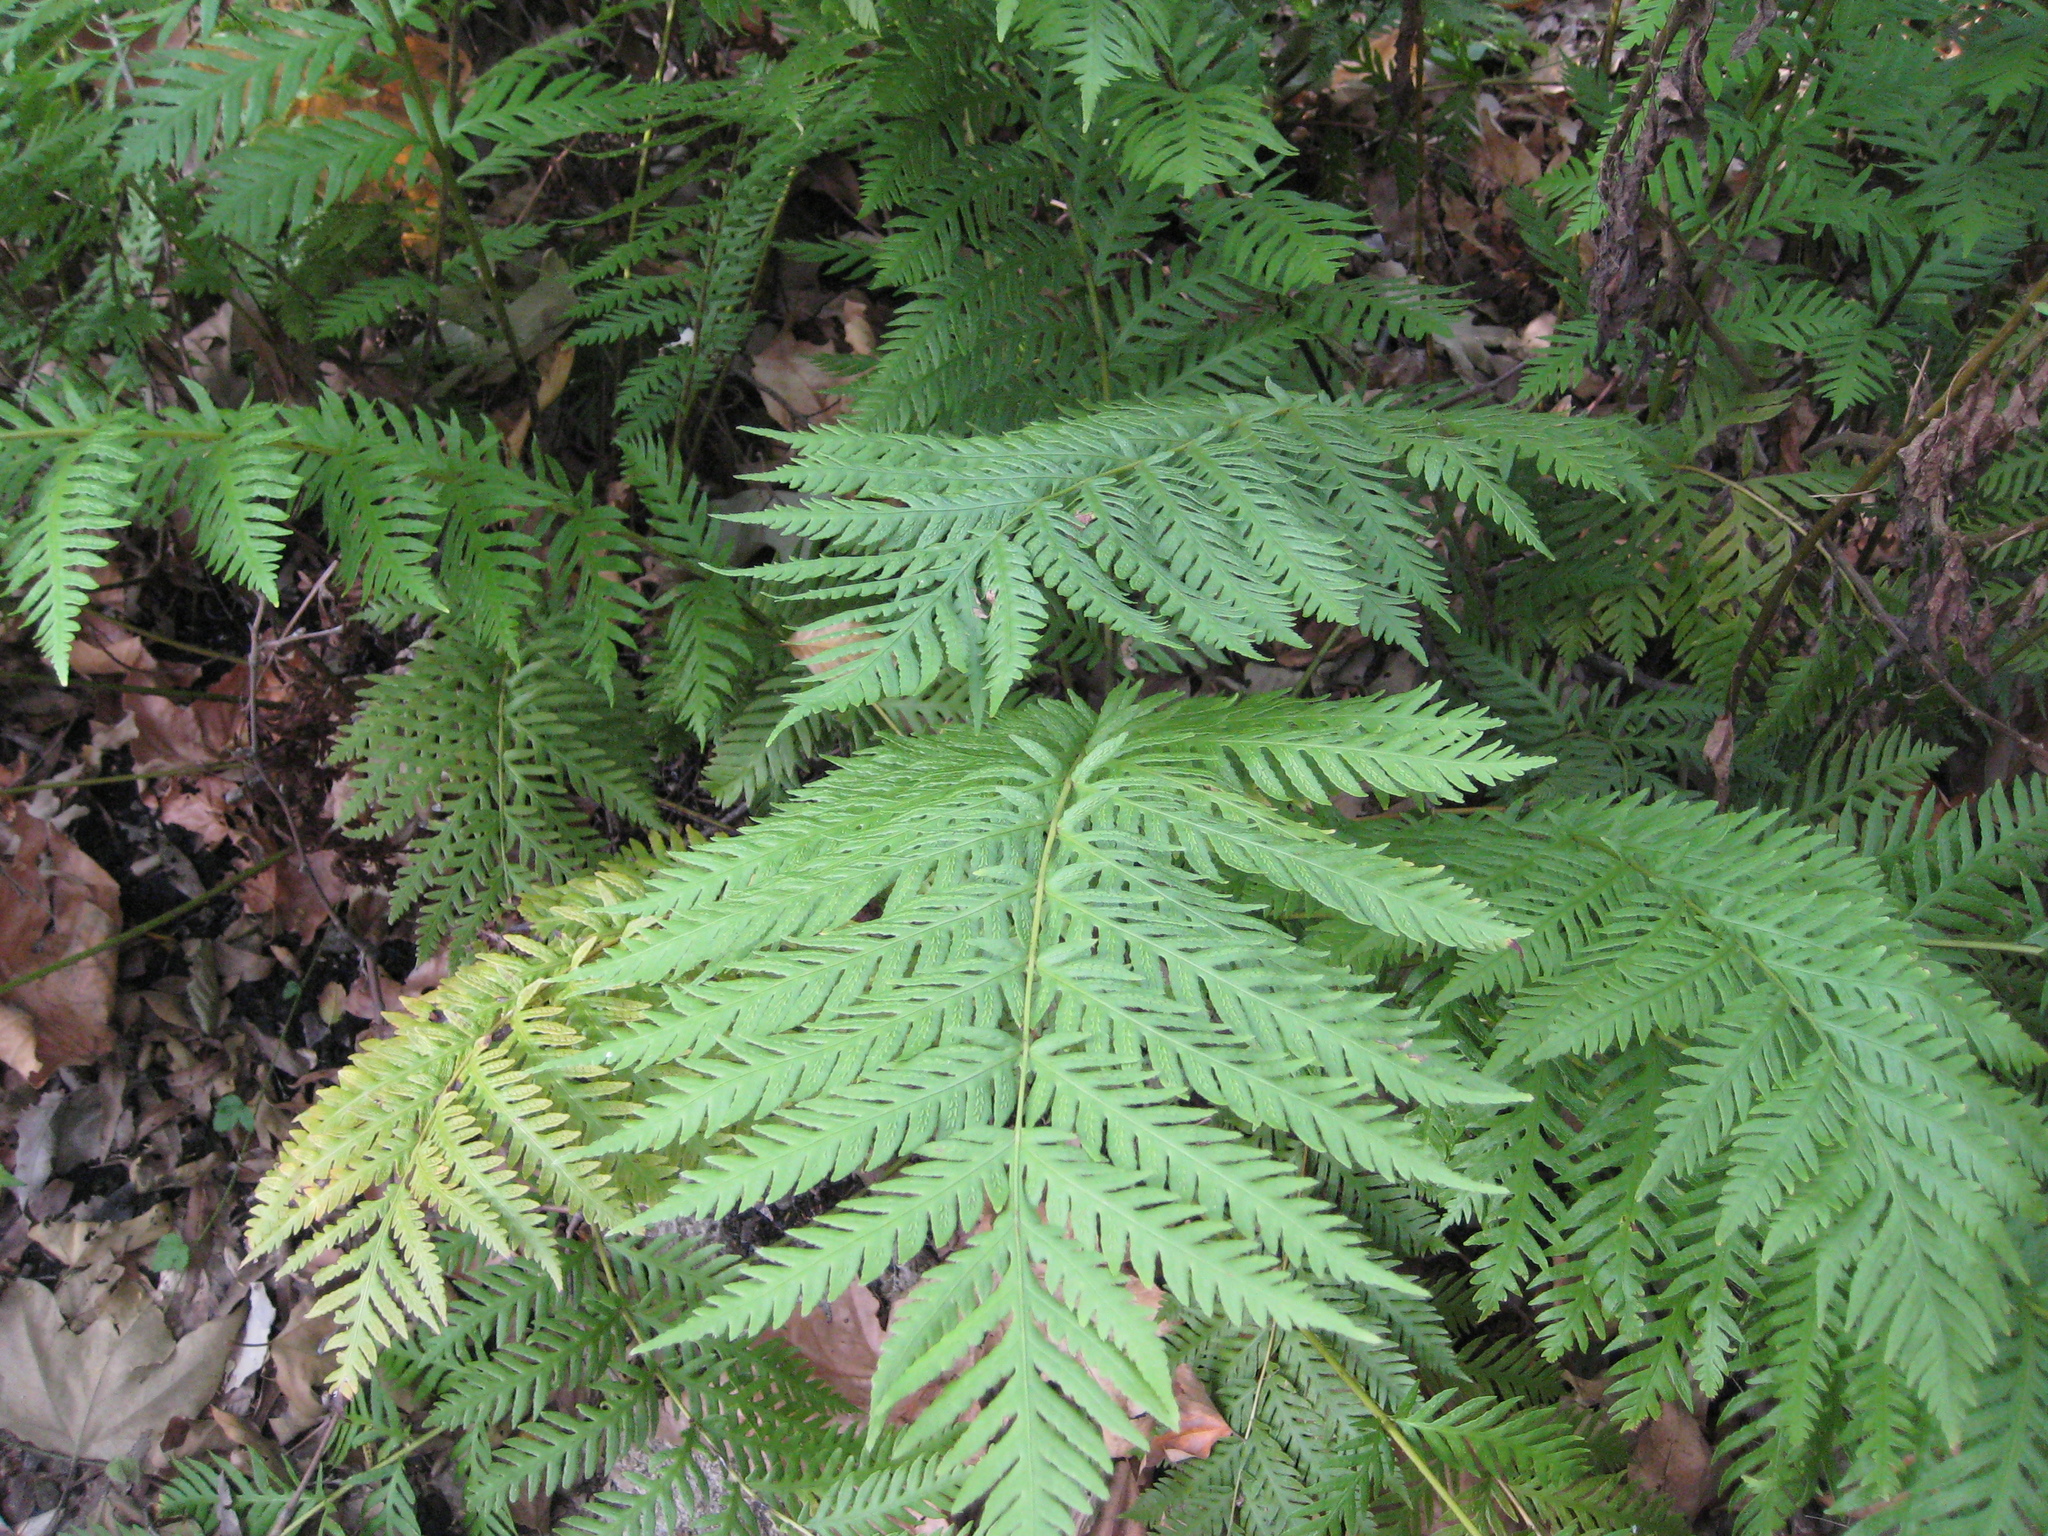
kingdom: Plantae
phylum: Tracheophyta
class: Polypodiopsida
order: Polypodiales
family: Blechnaceae
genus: Woodwardia
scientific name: Woodwardia fimbriata
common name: Giant chain fern
